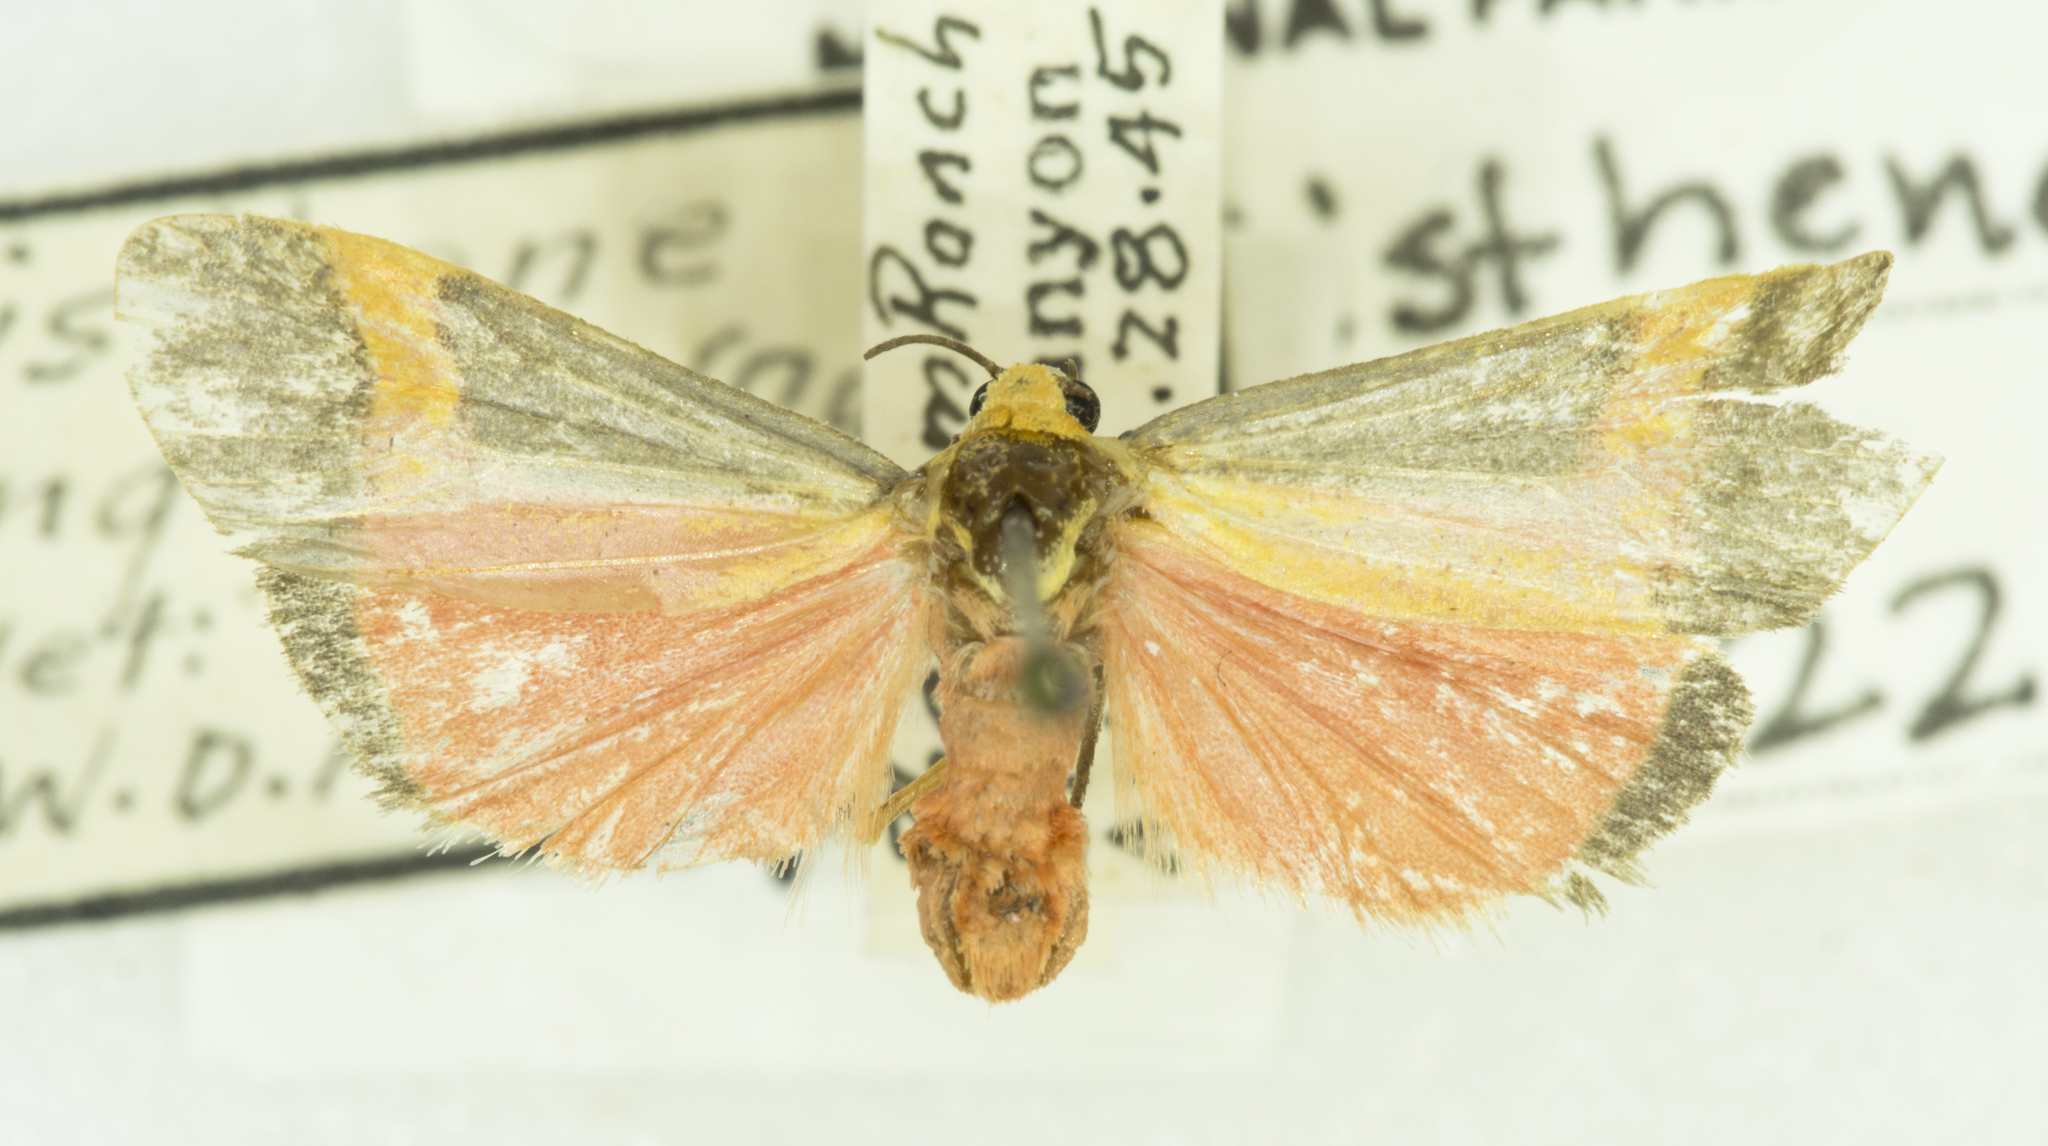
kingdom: Animalia
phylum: Arthropoda
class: Insecta
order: Lepidoptera
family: Erebidae
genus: Cisthene
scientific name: Cisthene angelus
